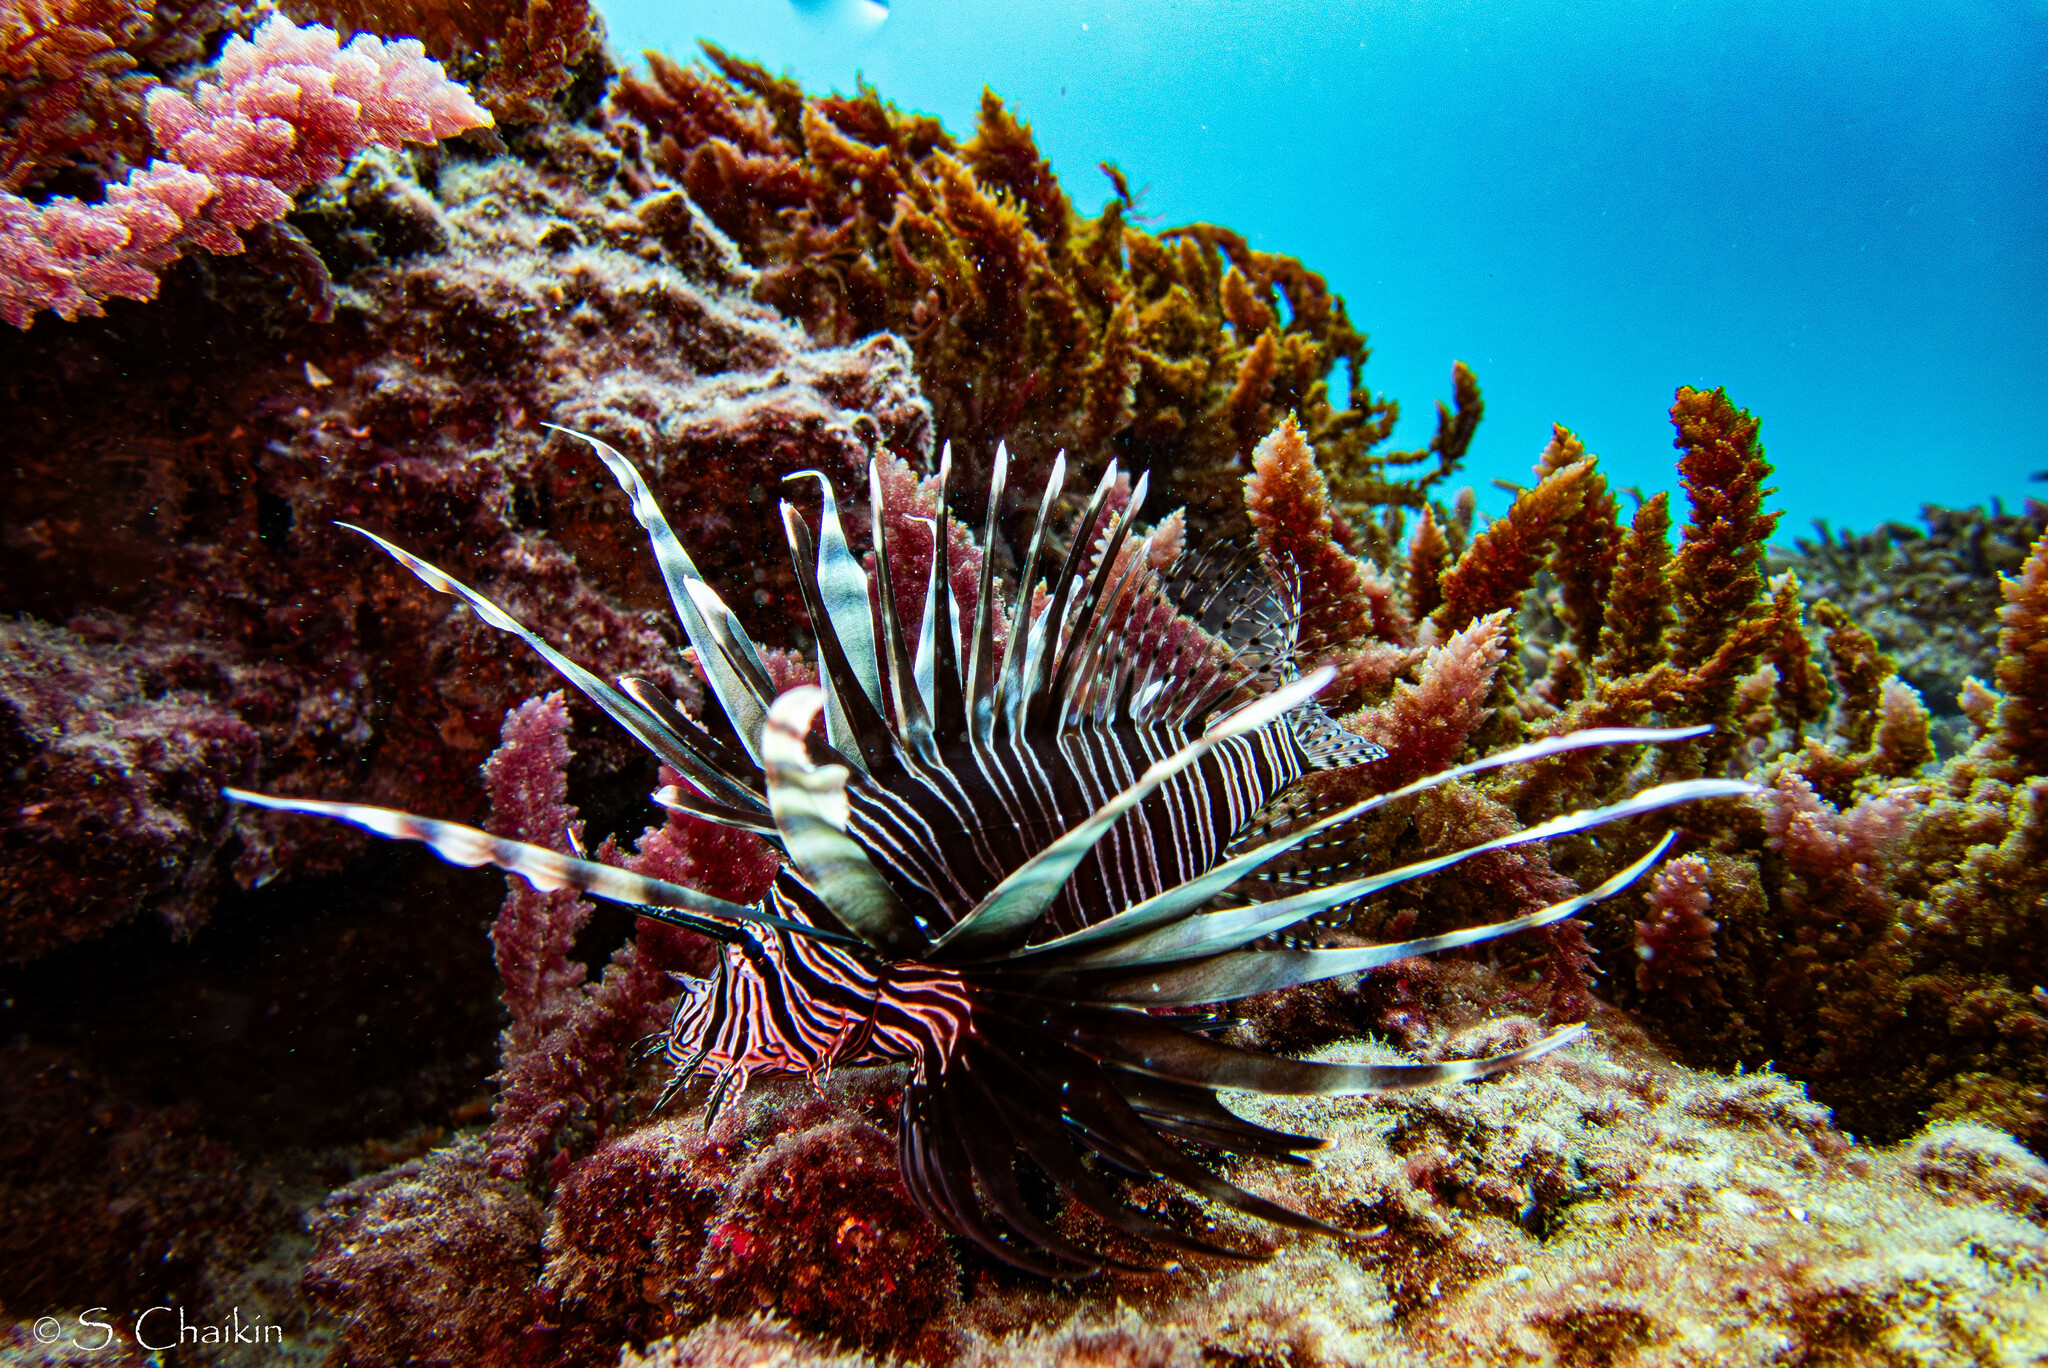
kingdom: Animalia
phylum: Chordata
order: Scorpaeniformes
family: Scorpaenidae
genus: Pterois
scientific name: Pterois miles
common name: Devil firefish
